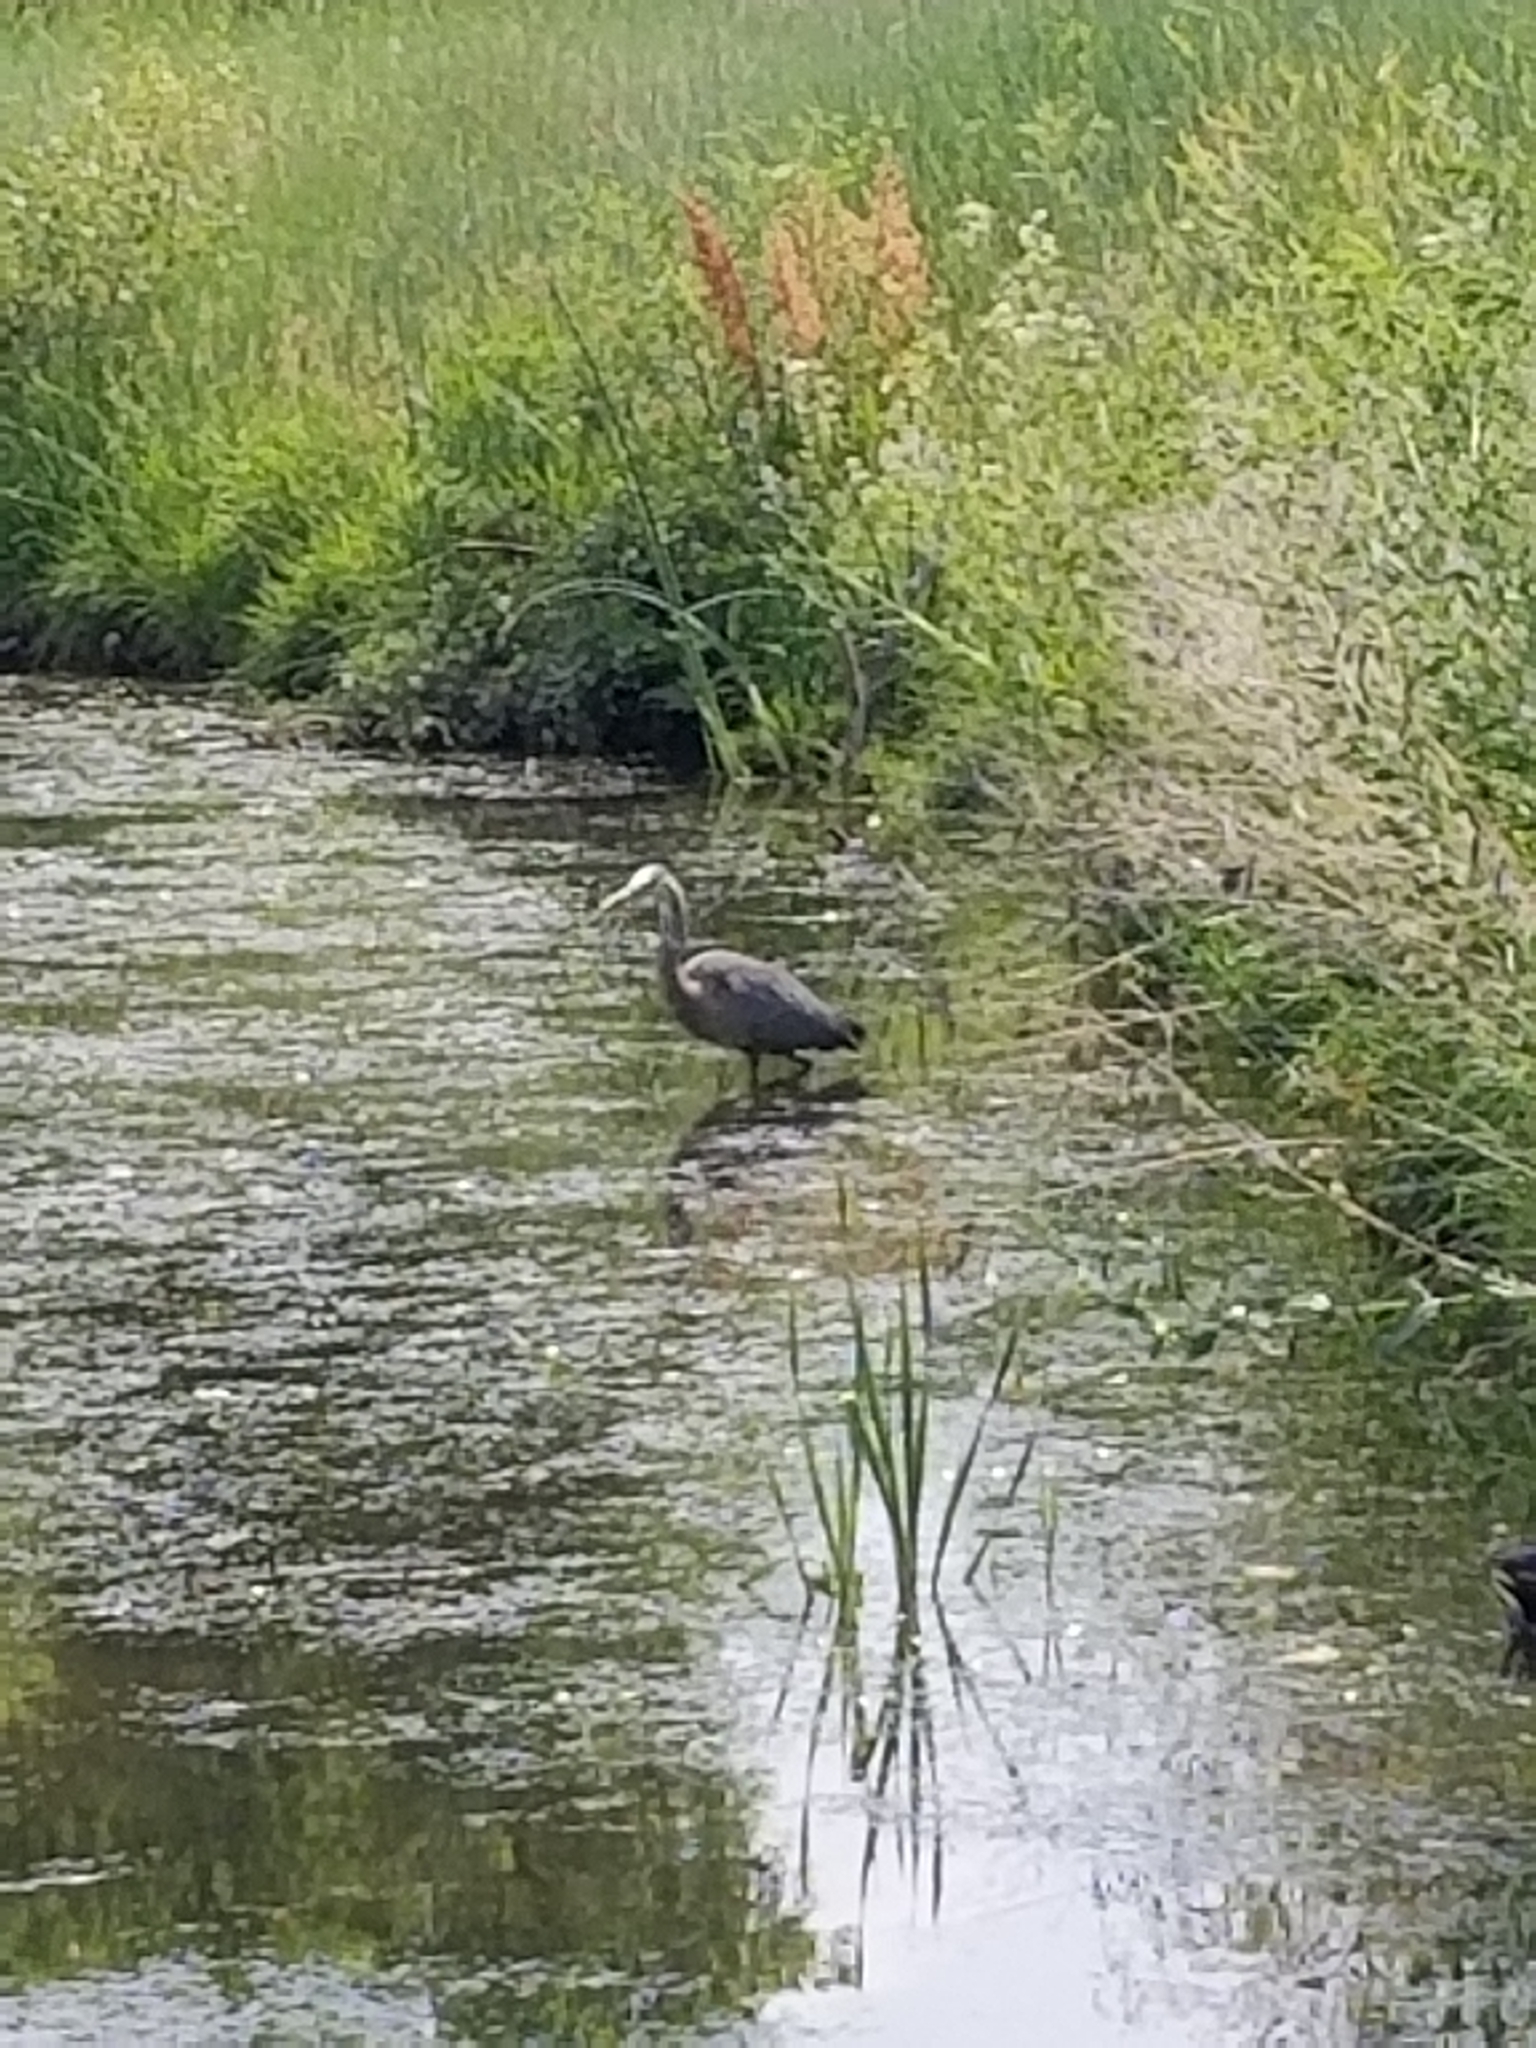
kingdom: Animalia
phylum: Chordata
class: Aves
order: Pelecaniformes
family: Ardeidae
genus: Ardea
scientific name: Ardea herodias
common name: Great blue heron
